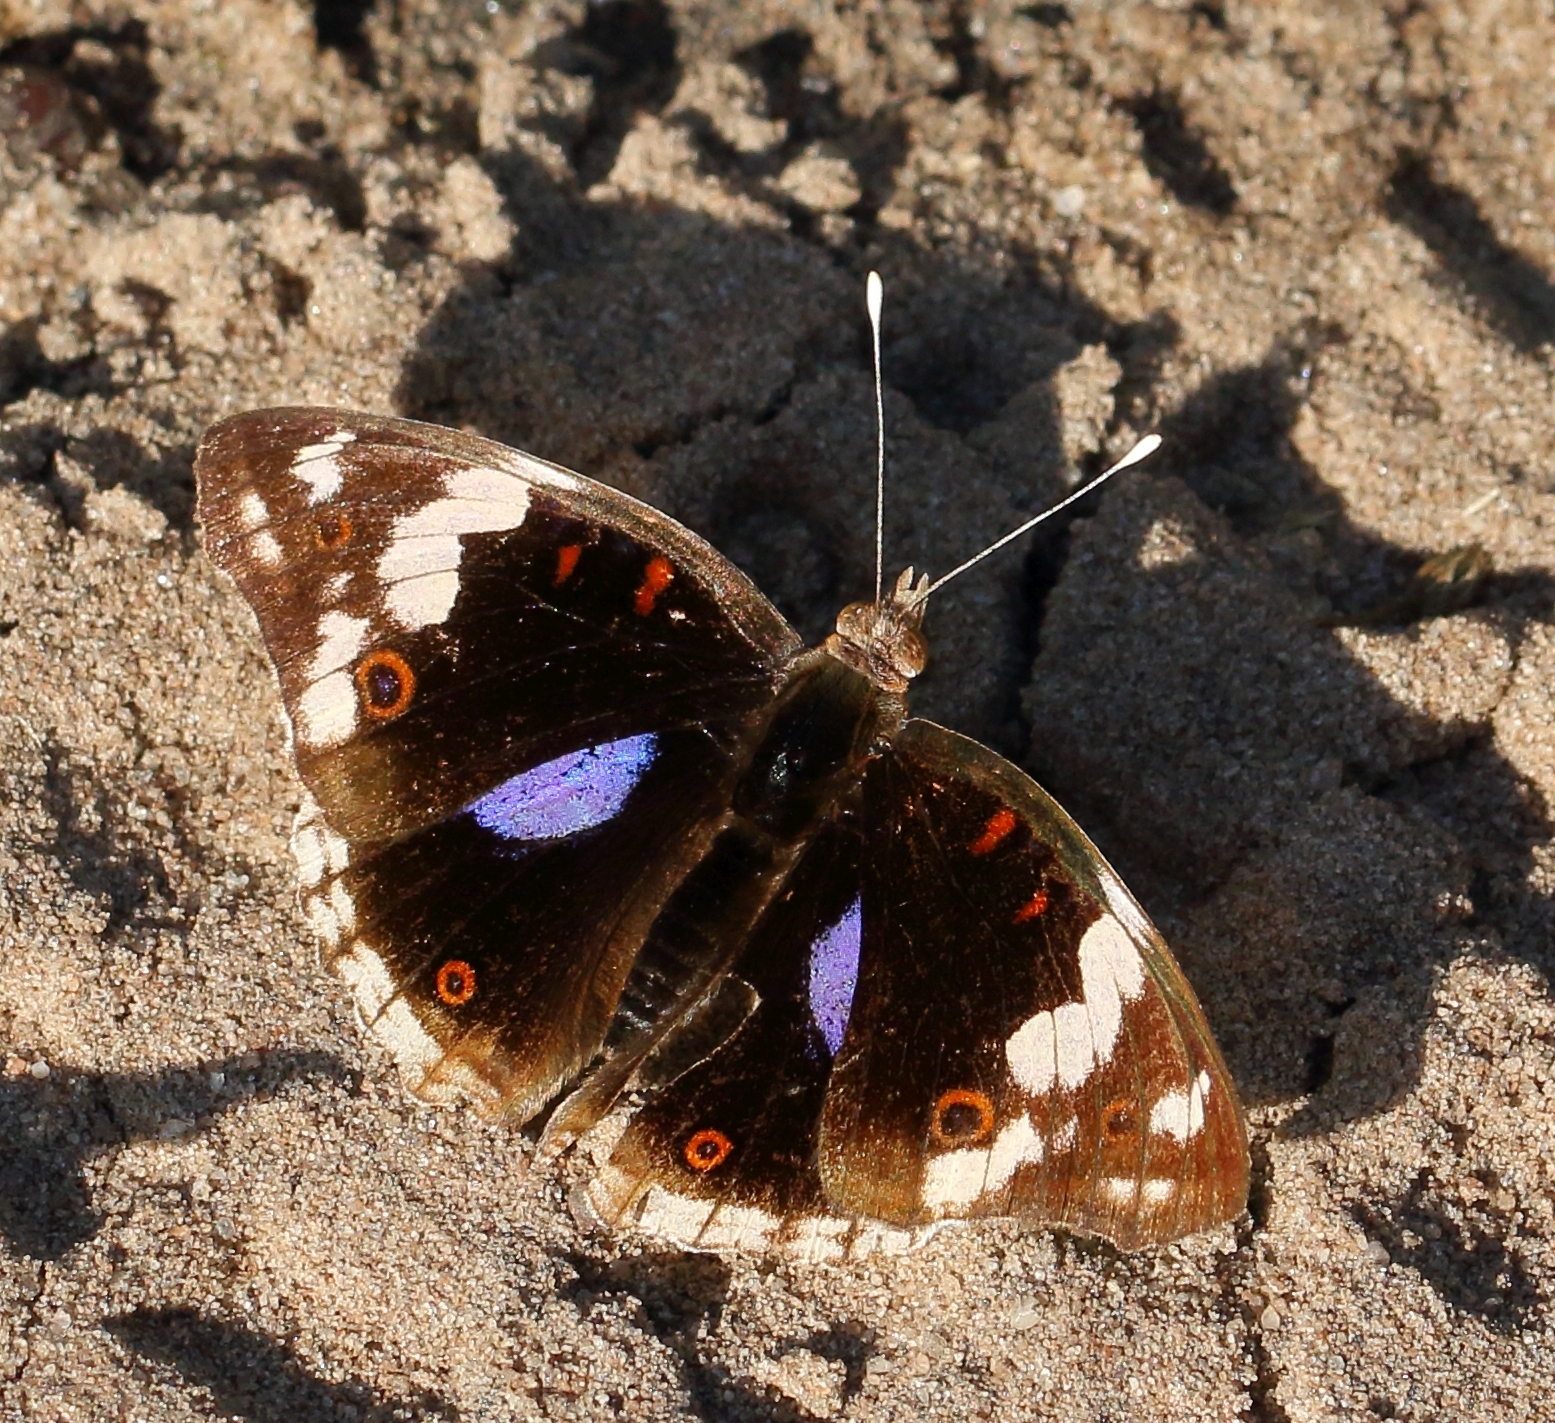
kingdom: Animalia
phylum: Arthropoda
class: Insecta
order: Lepidoptera
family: Nymphalidae
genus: Junonia
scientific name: Junonia oenone
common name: Dark blue pansy
